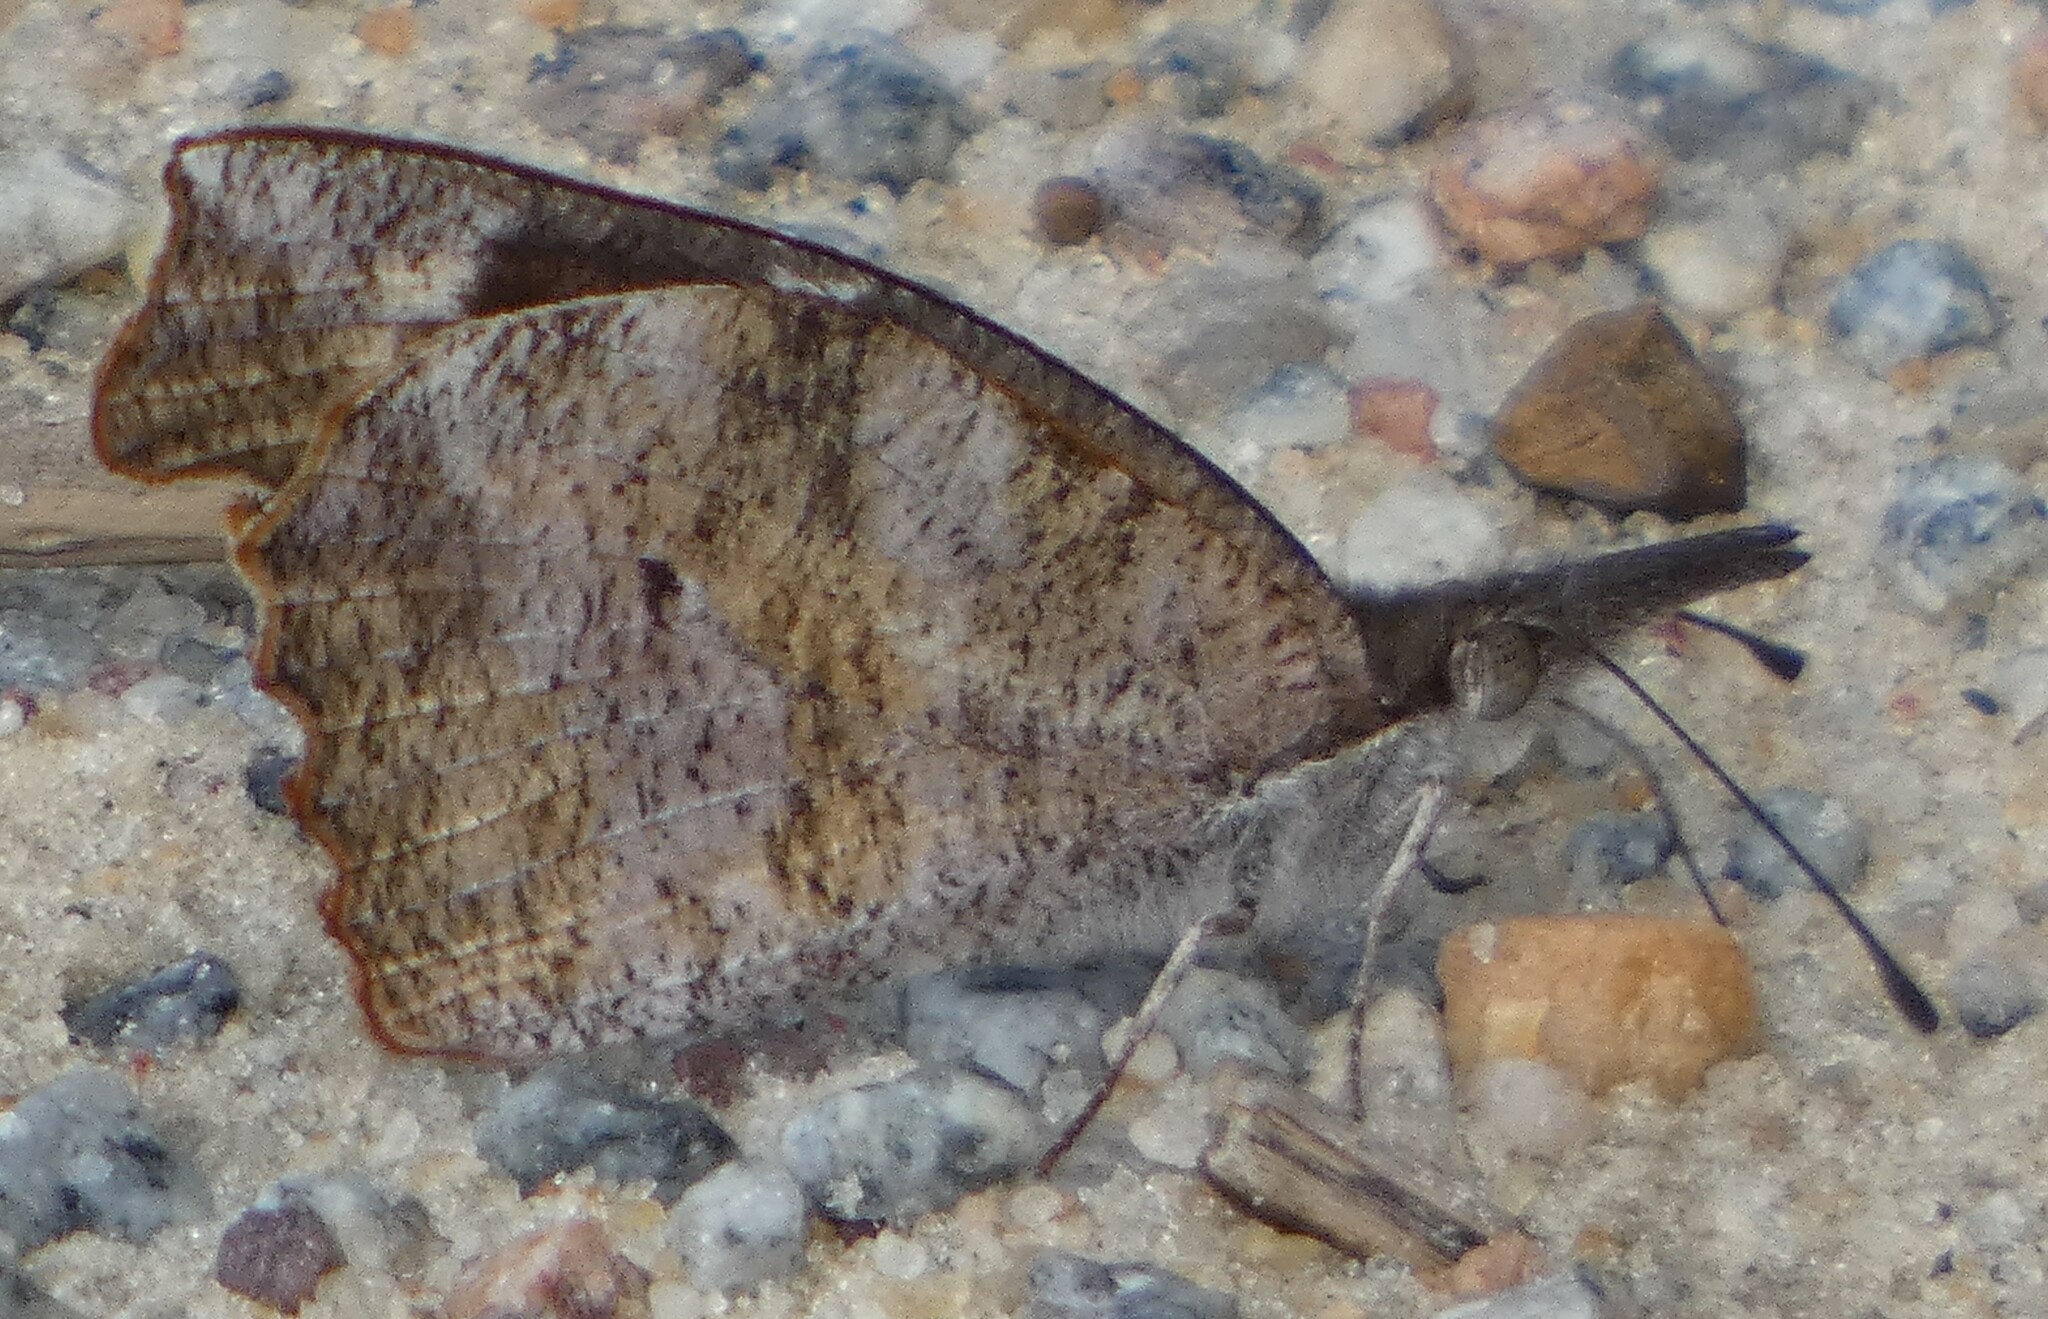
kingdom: Animalia
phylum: Arthropoda
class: Insecta
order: Lepidoptera
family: Nymphalidae
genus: Libytheana
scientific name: Libytheana carinenta
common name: American snout
